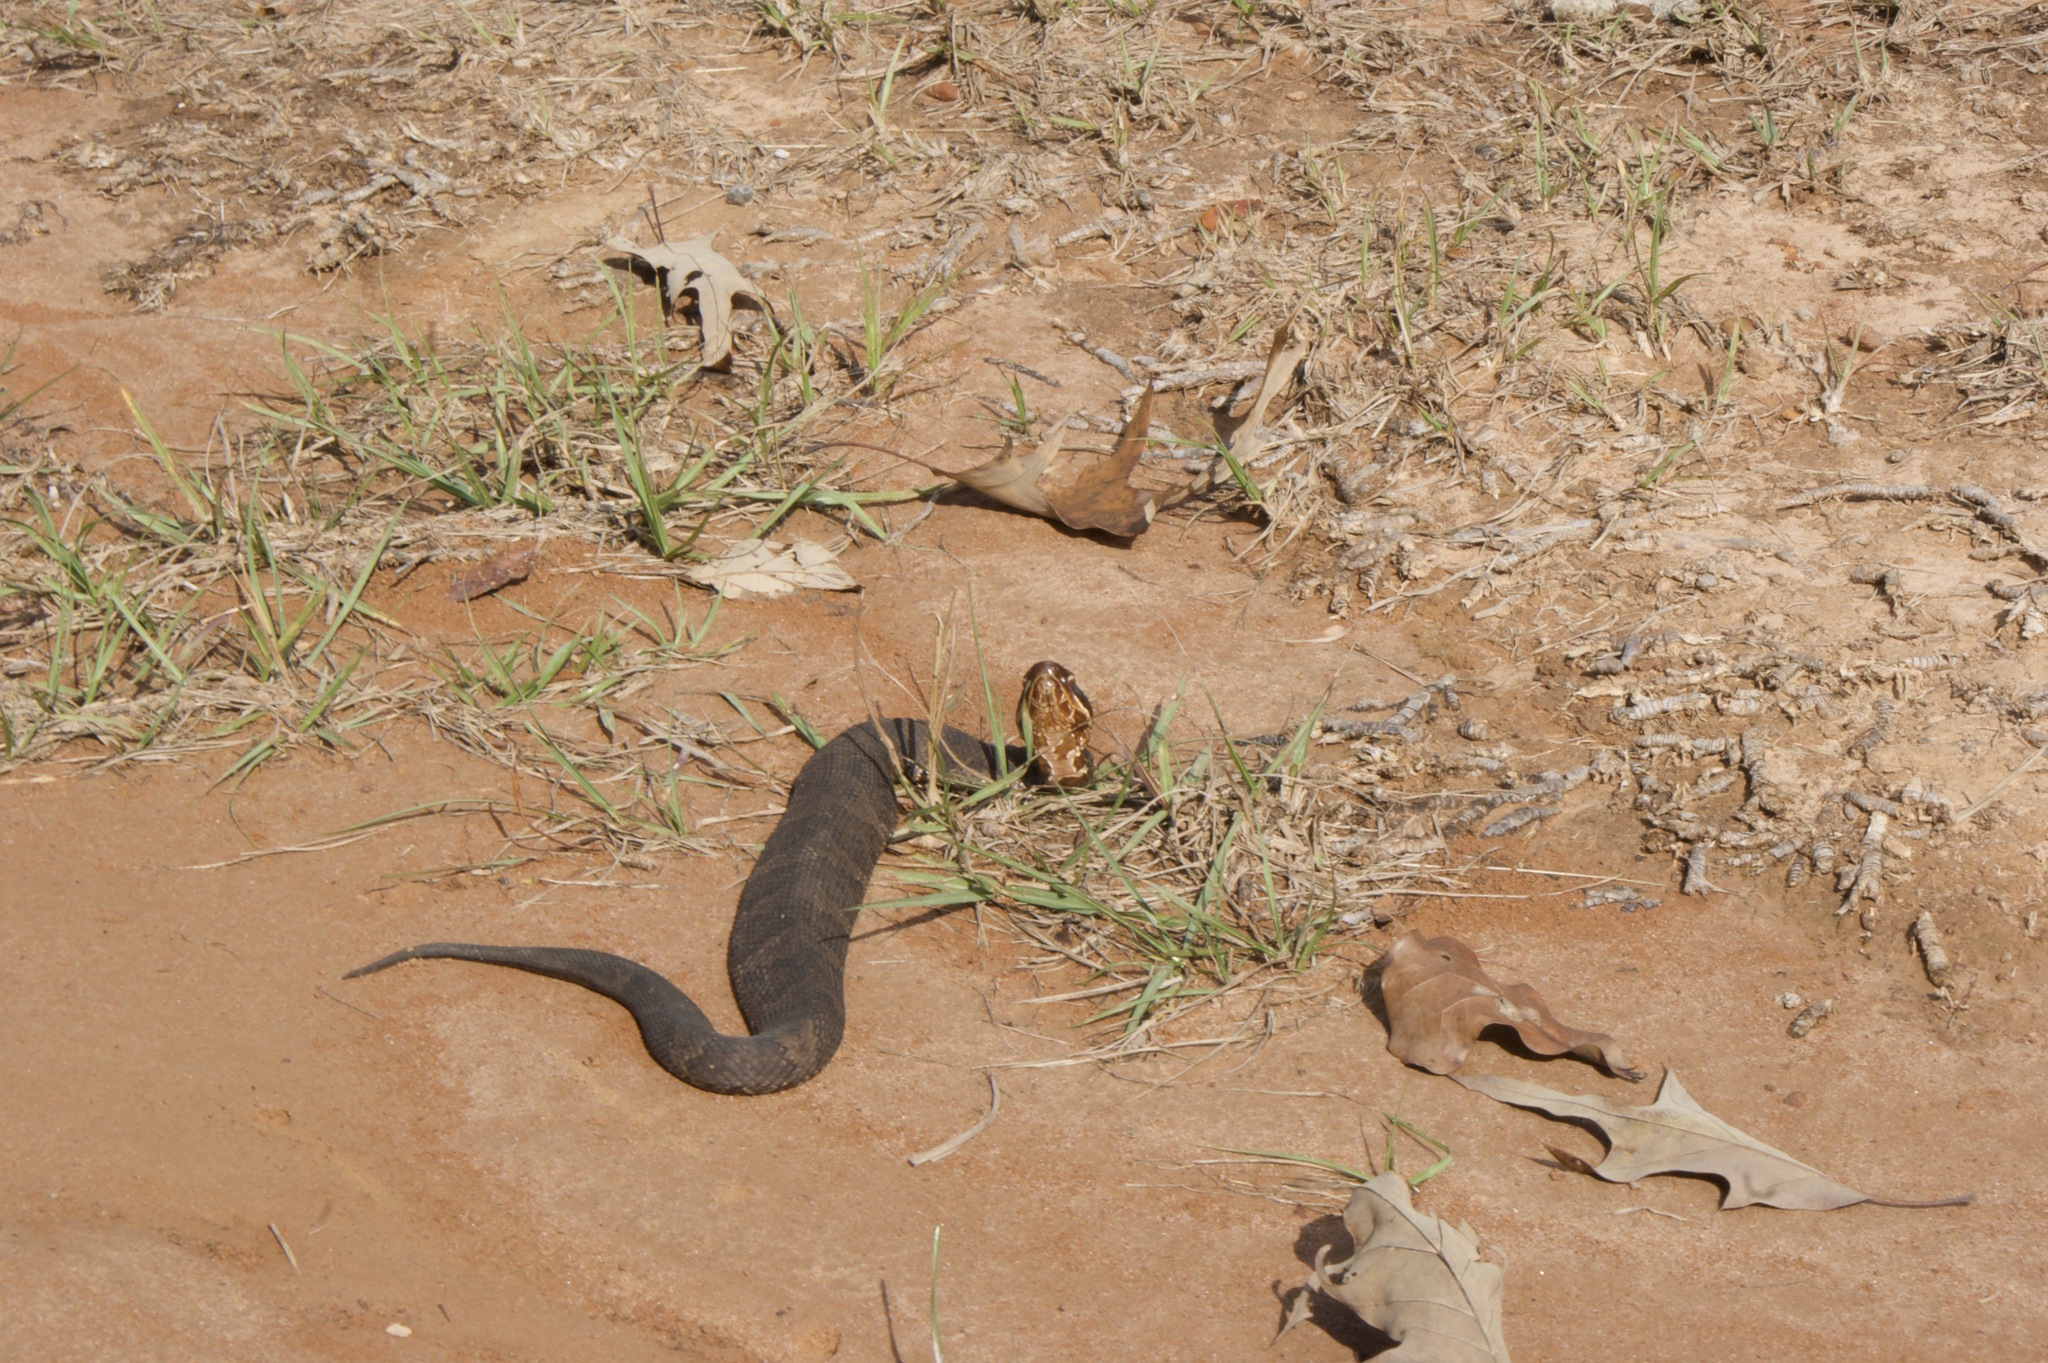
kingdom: Animalia
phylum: Chordata
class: Squamata
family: Viperidae
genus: Agkistrodon
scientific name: Agkistrodon piscivorus
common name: Cottonmouth
